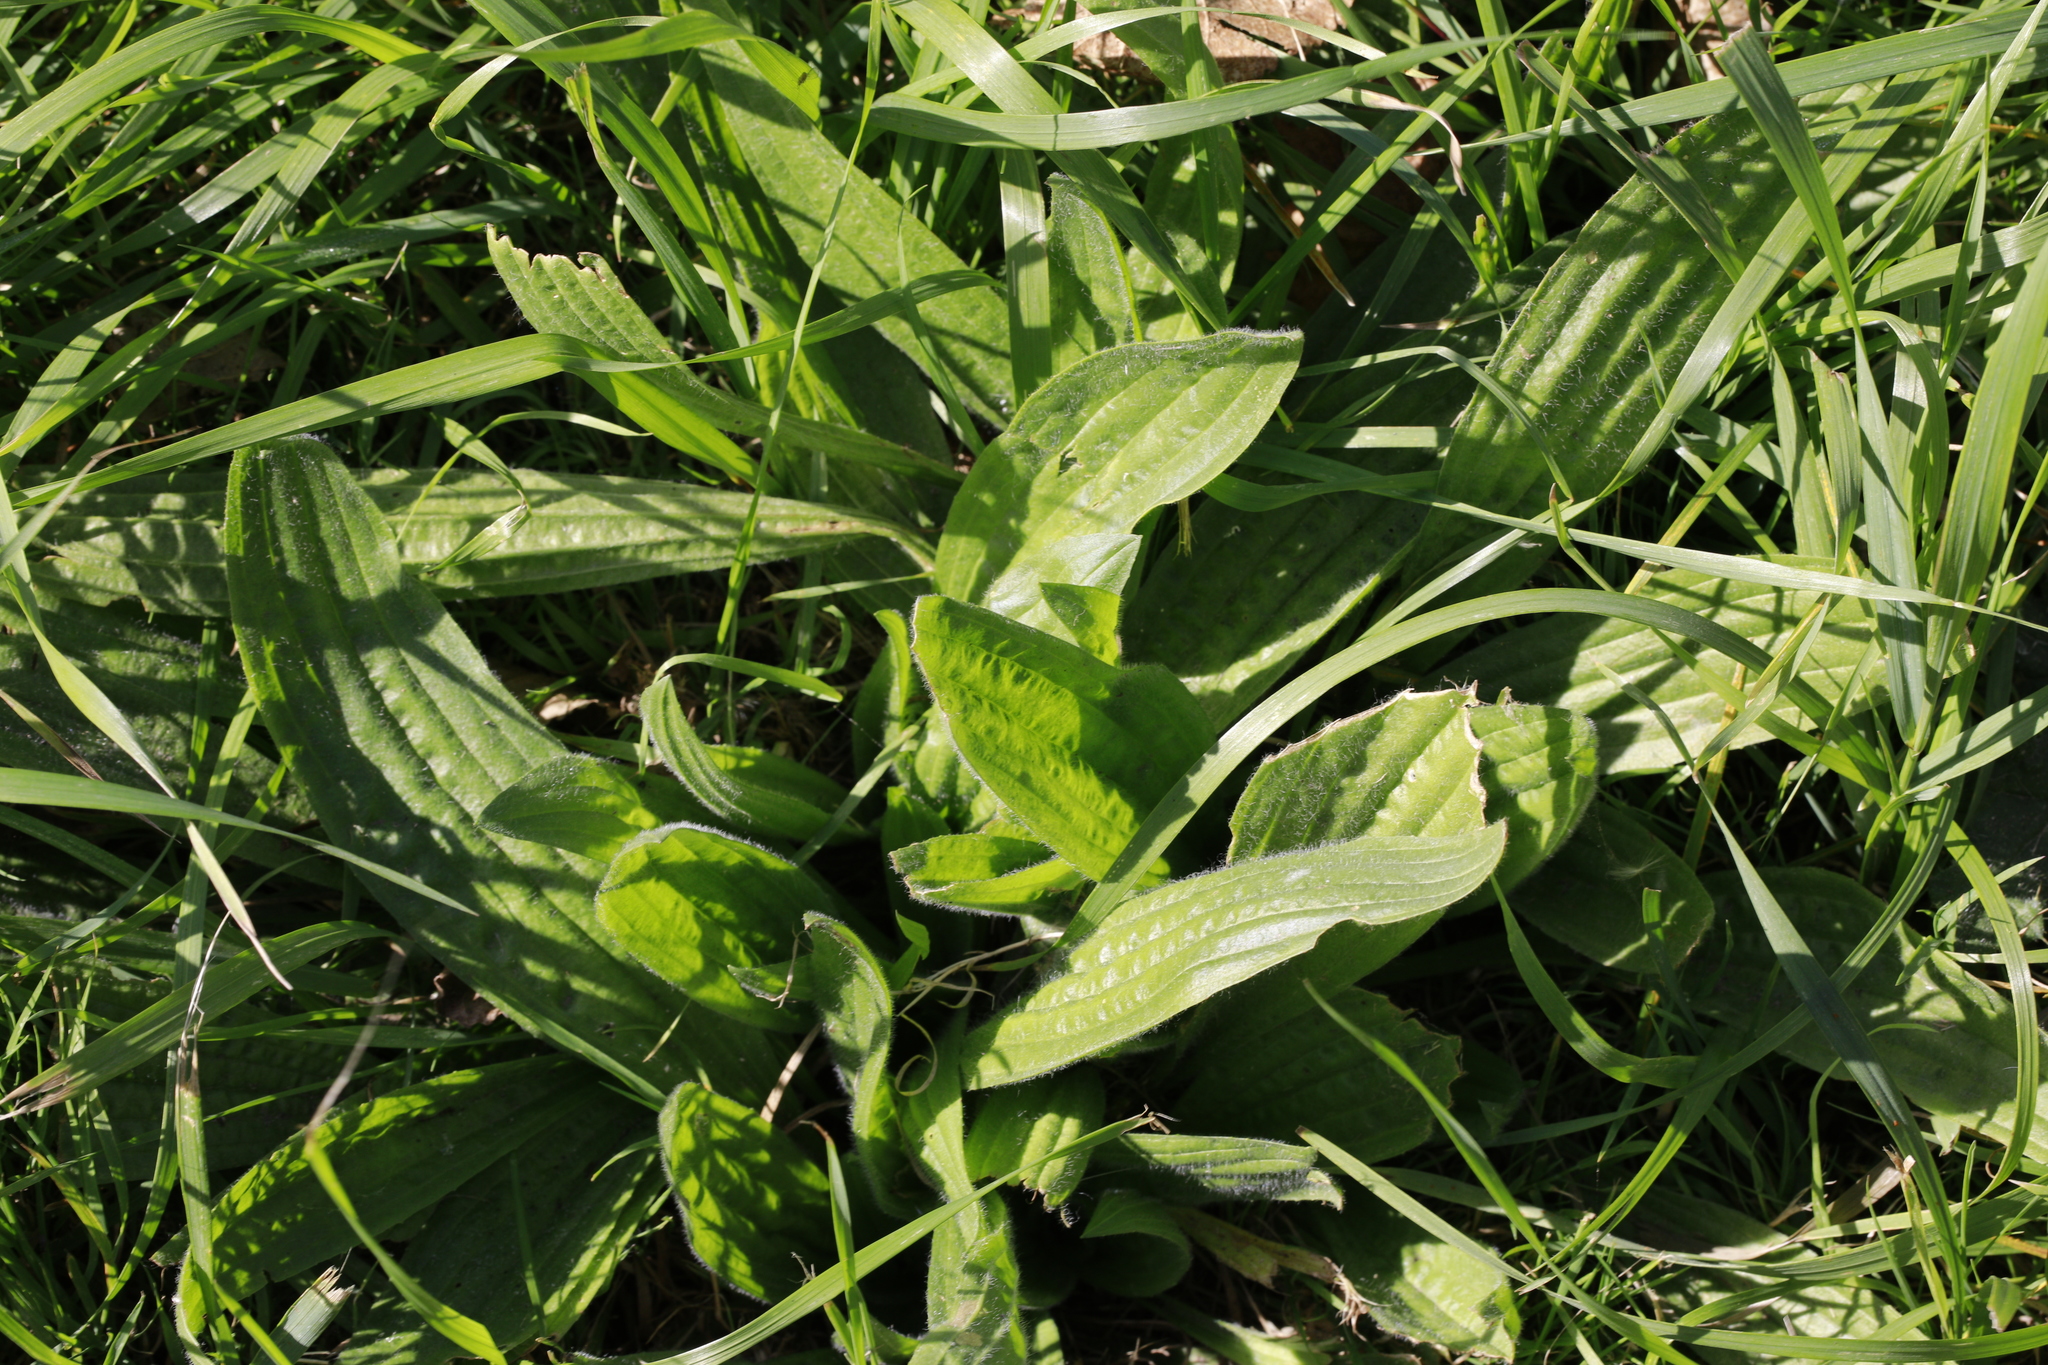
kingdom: Plantae
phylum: Tracheophyta
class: Magnoliopsida
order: Lamiales
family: Plantaginaceae
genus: Plantago
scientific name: Plantago lanceolata
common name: Ribwort plantain
